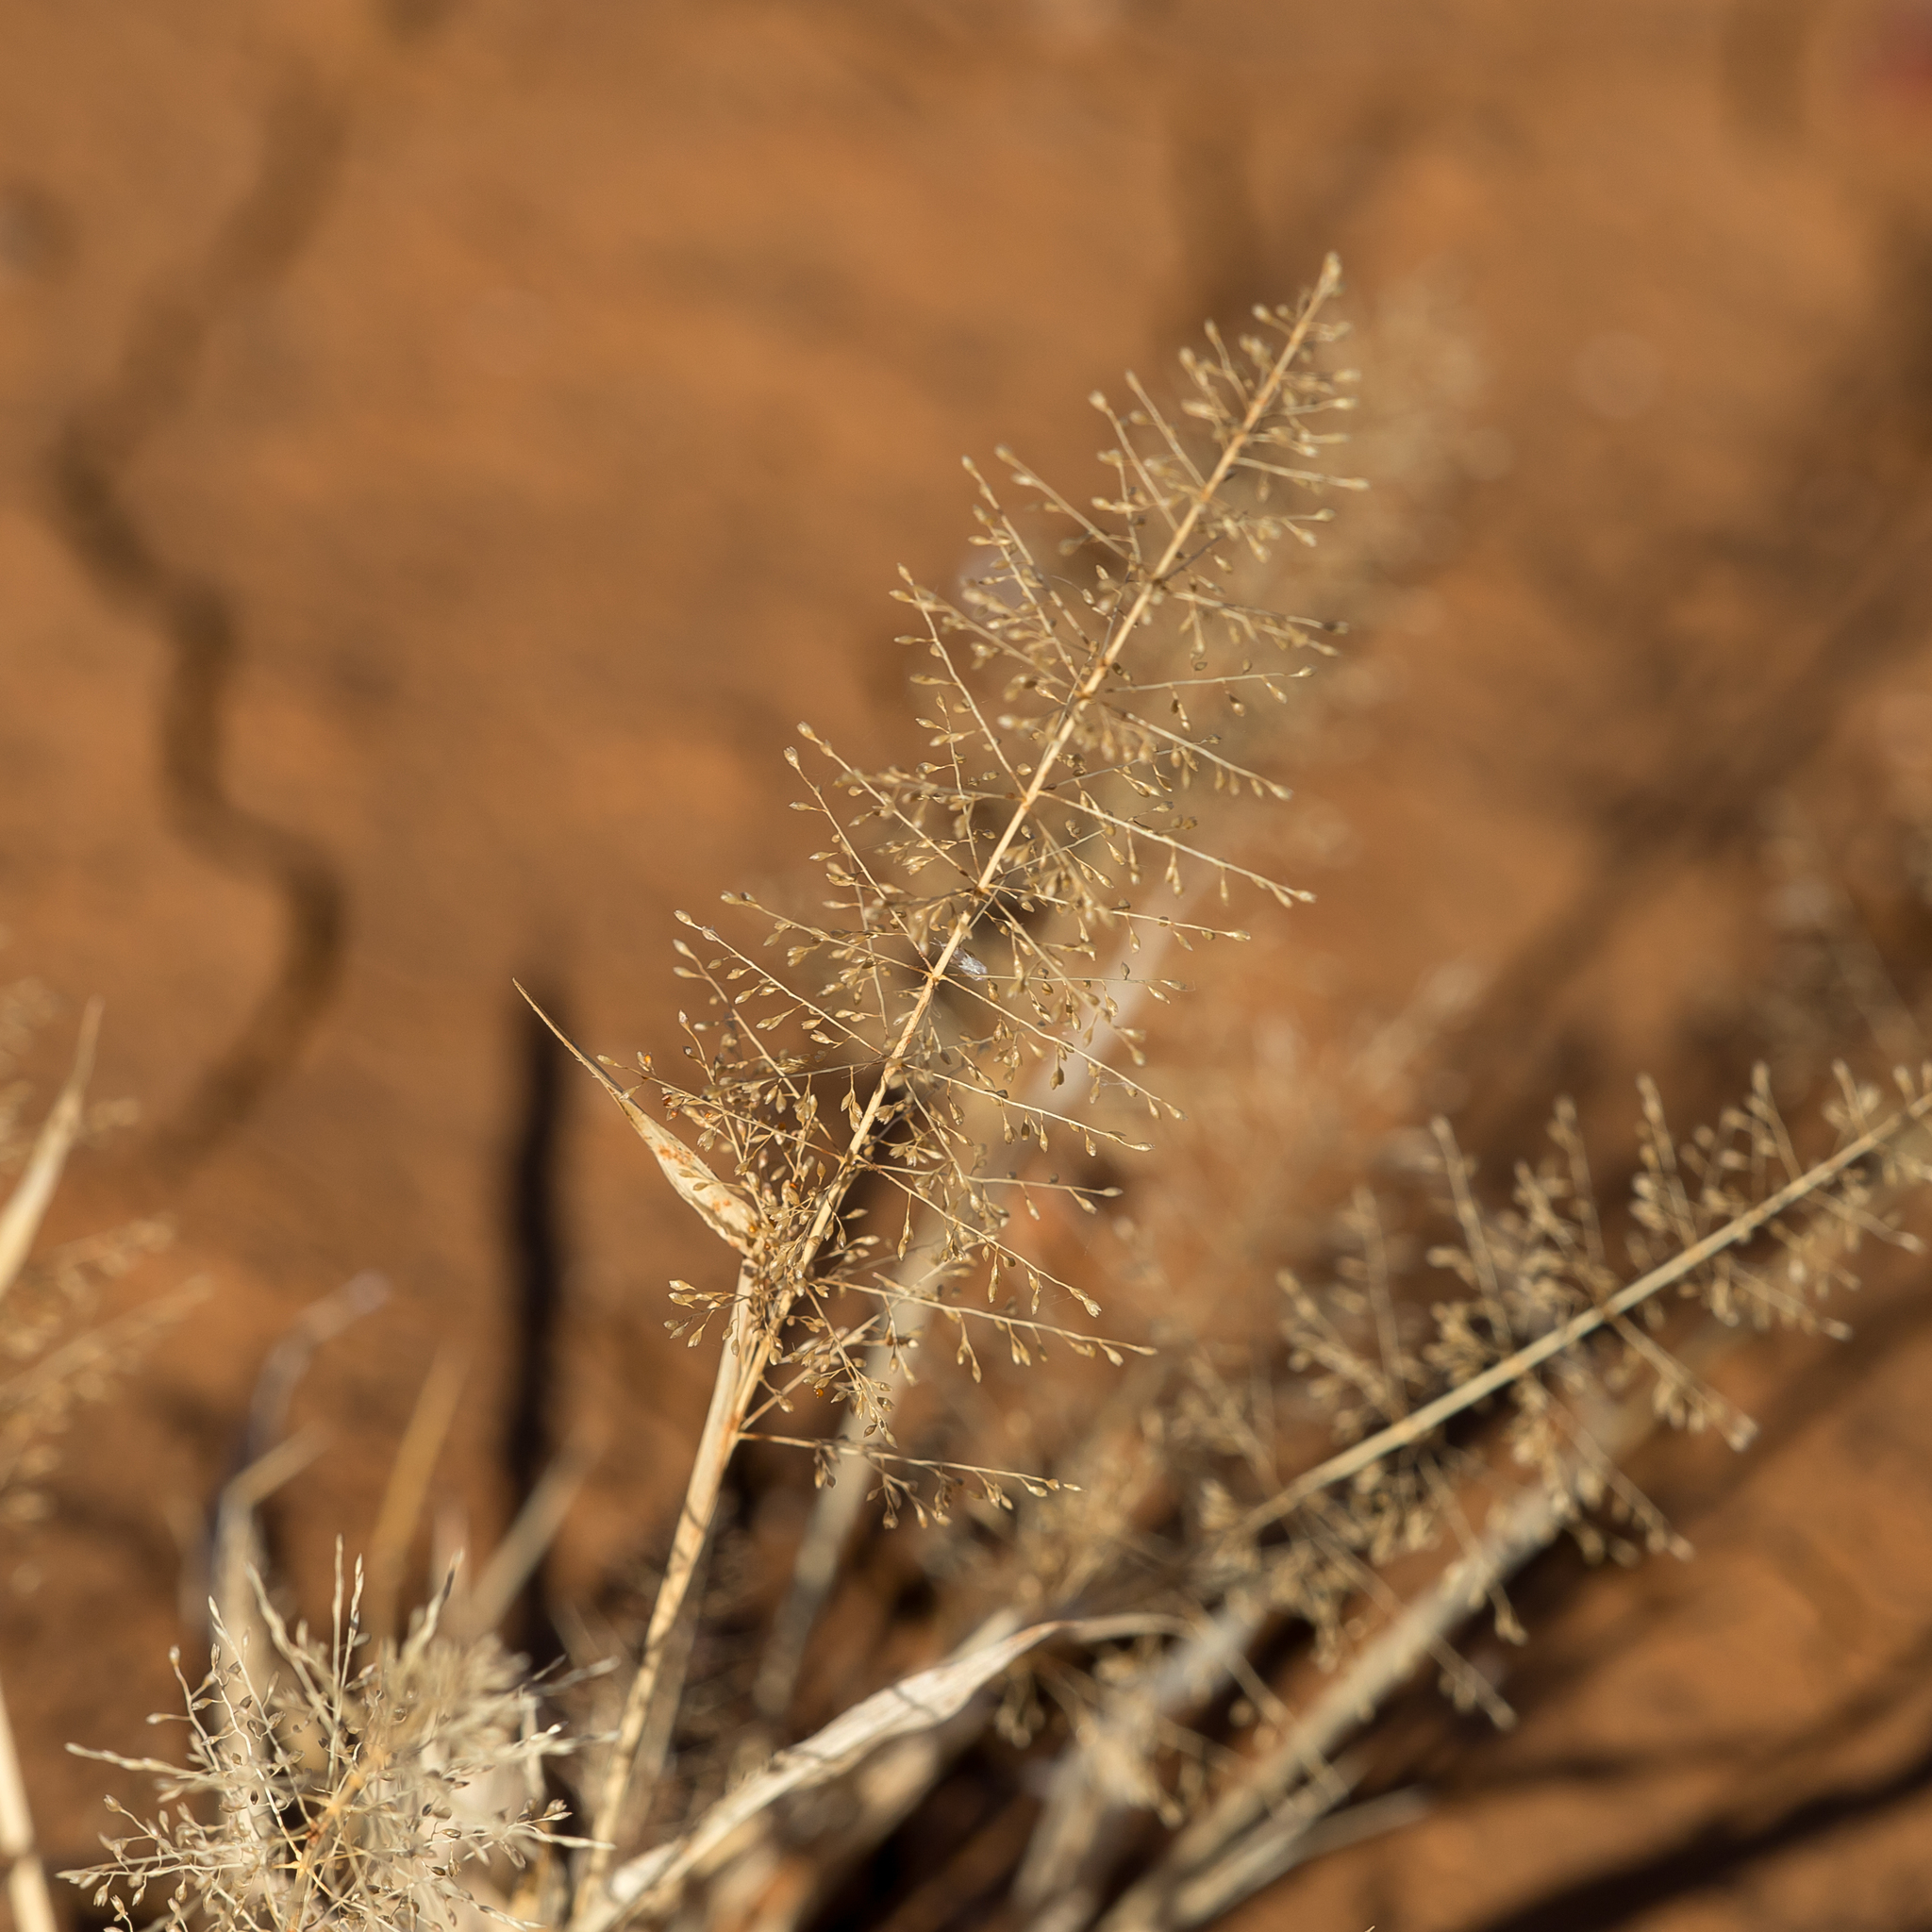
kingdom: Plantae
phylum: Tracheophyta
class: Liliopsida
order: Poales
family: Poaceae
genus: Sporobolus
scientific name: Sporobolus australasicus
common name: Australian dropseed
